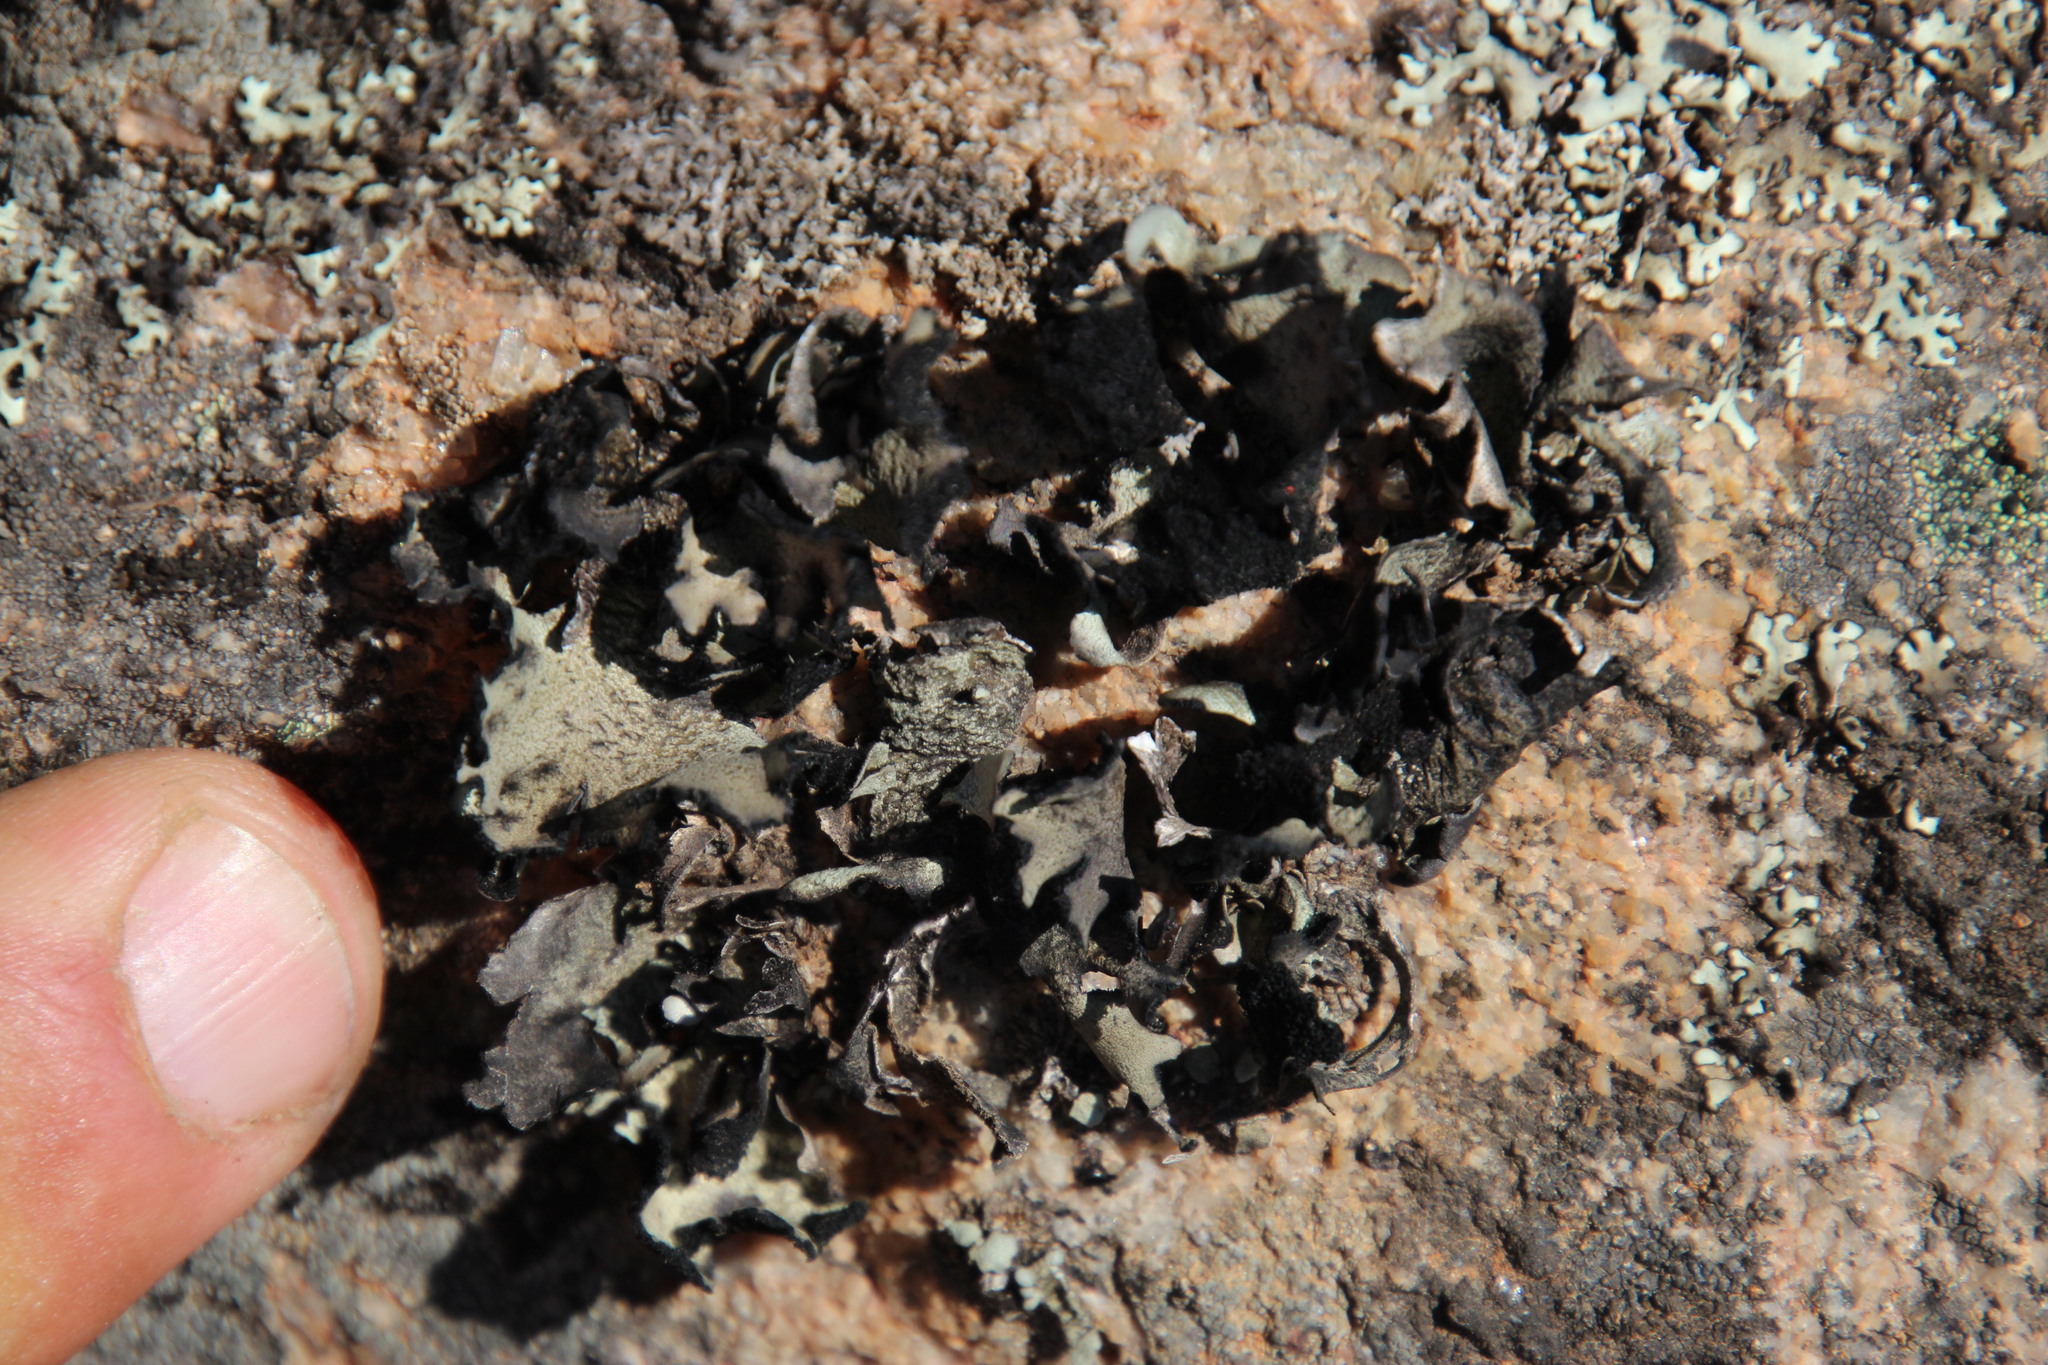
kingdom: Fungi
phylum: Ascomycota
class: Lecanoromycetes
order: Lecanorales
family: Parmeliaceae
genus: Xanthoparmelia
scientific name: Xanthoparmelia frondosa
